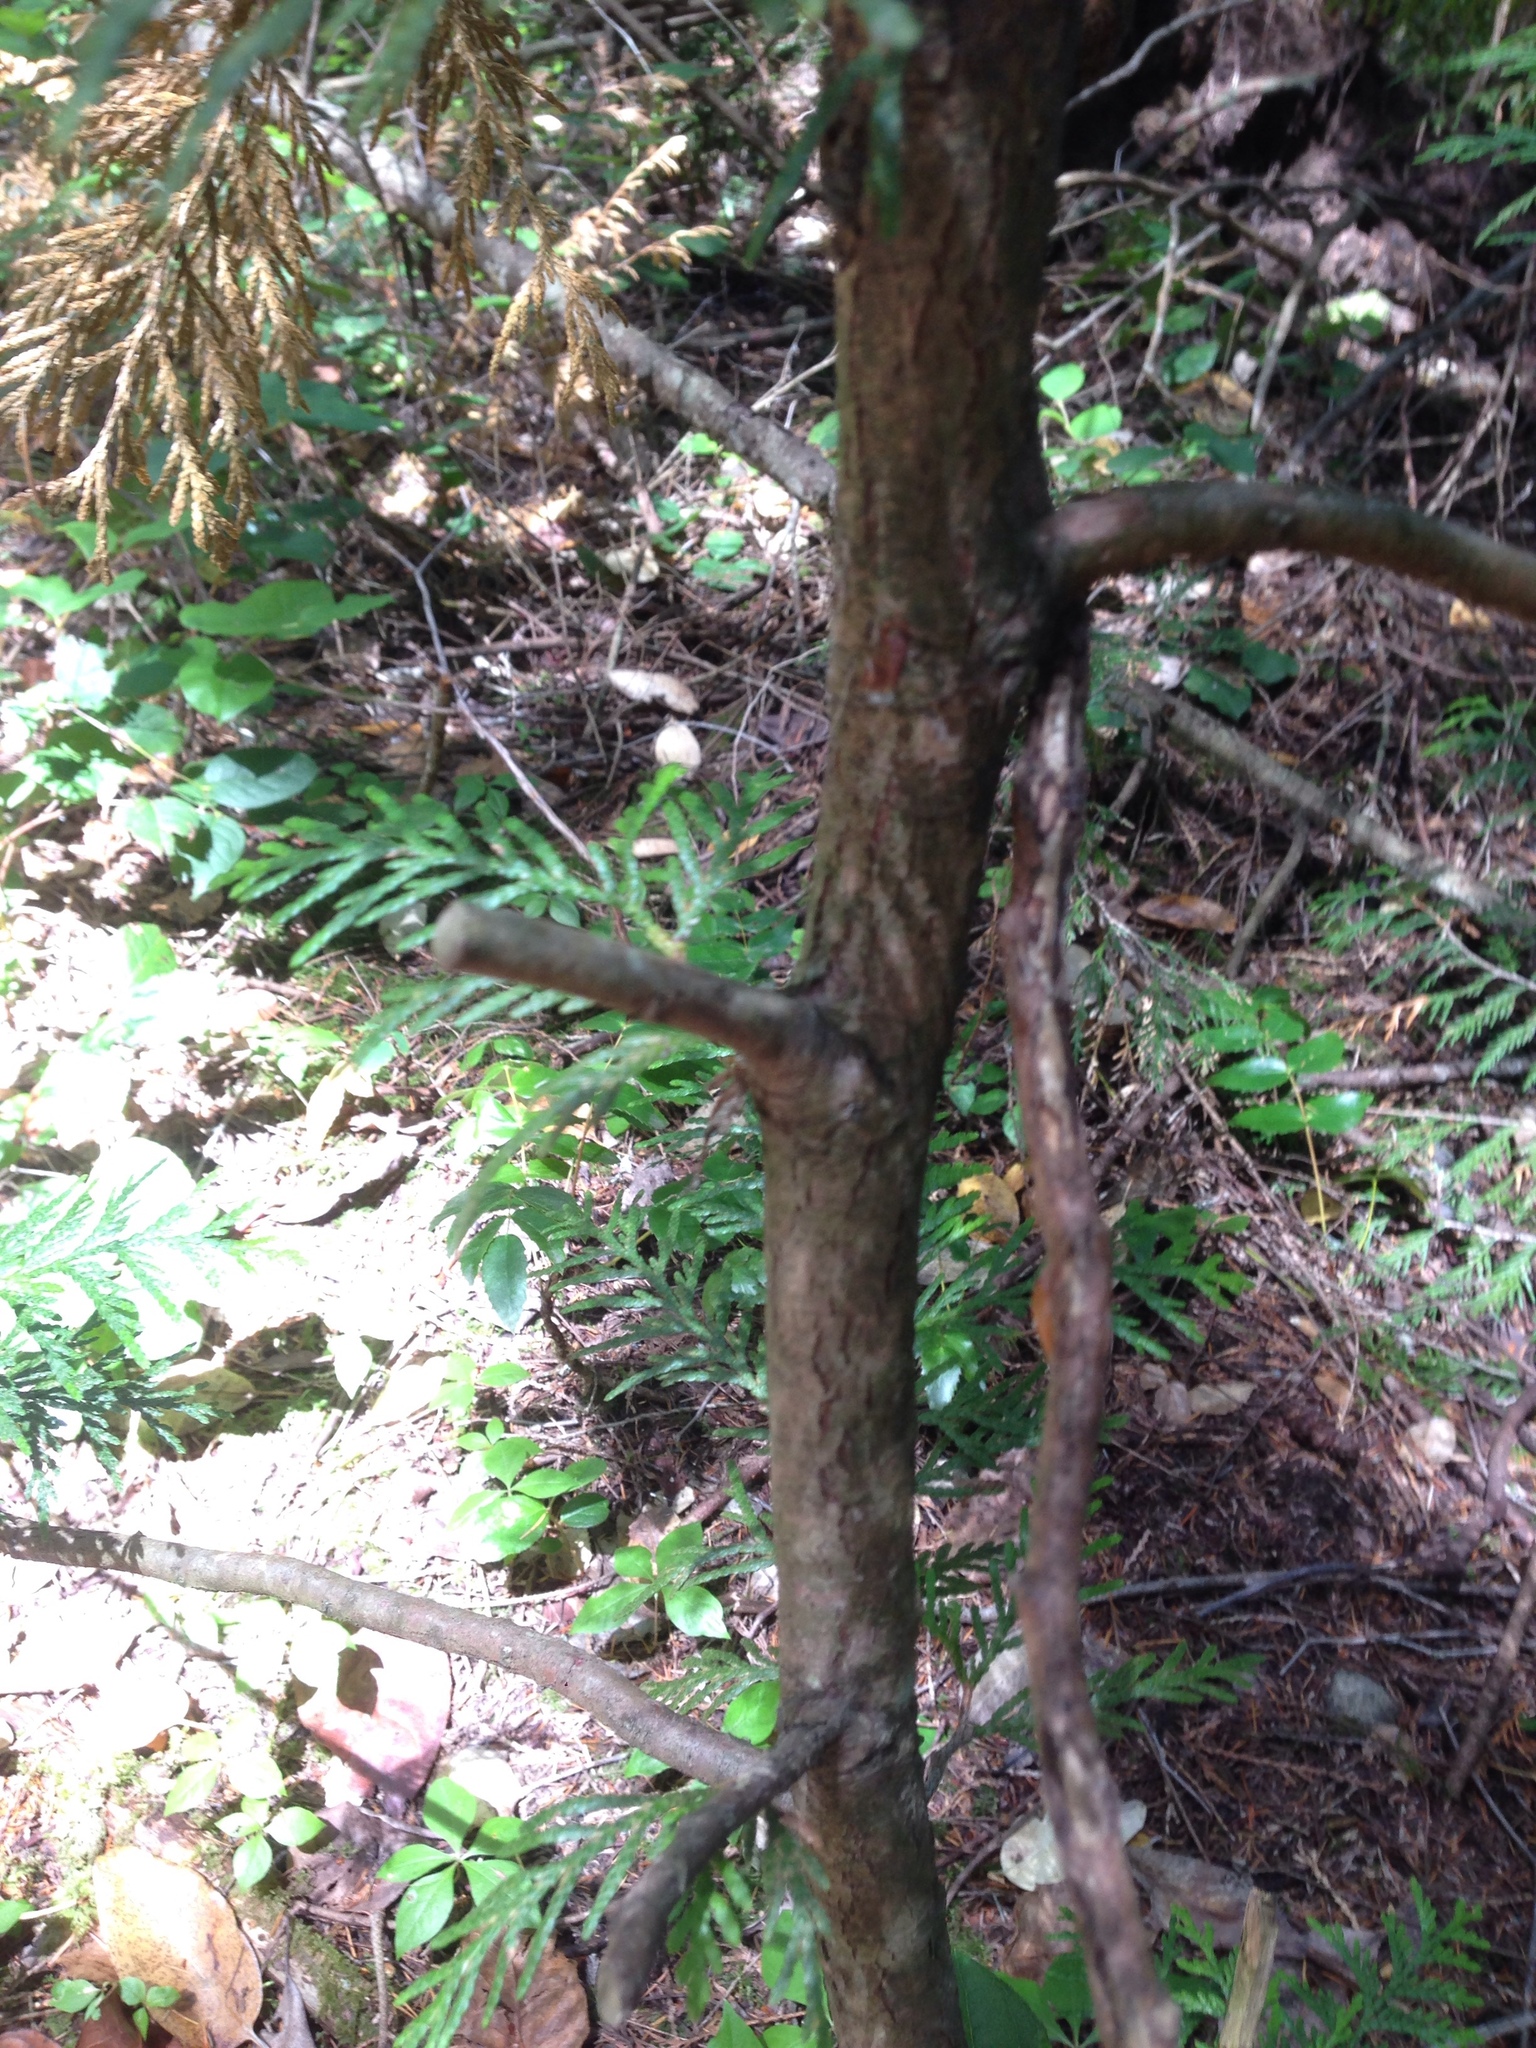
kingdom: Plantae
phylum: Tracheophyta
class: Pinopsida
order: Pinales
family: Cupressaceae
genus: Thuja
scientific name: Thuja plicata
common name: Western red-cedar
